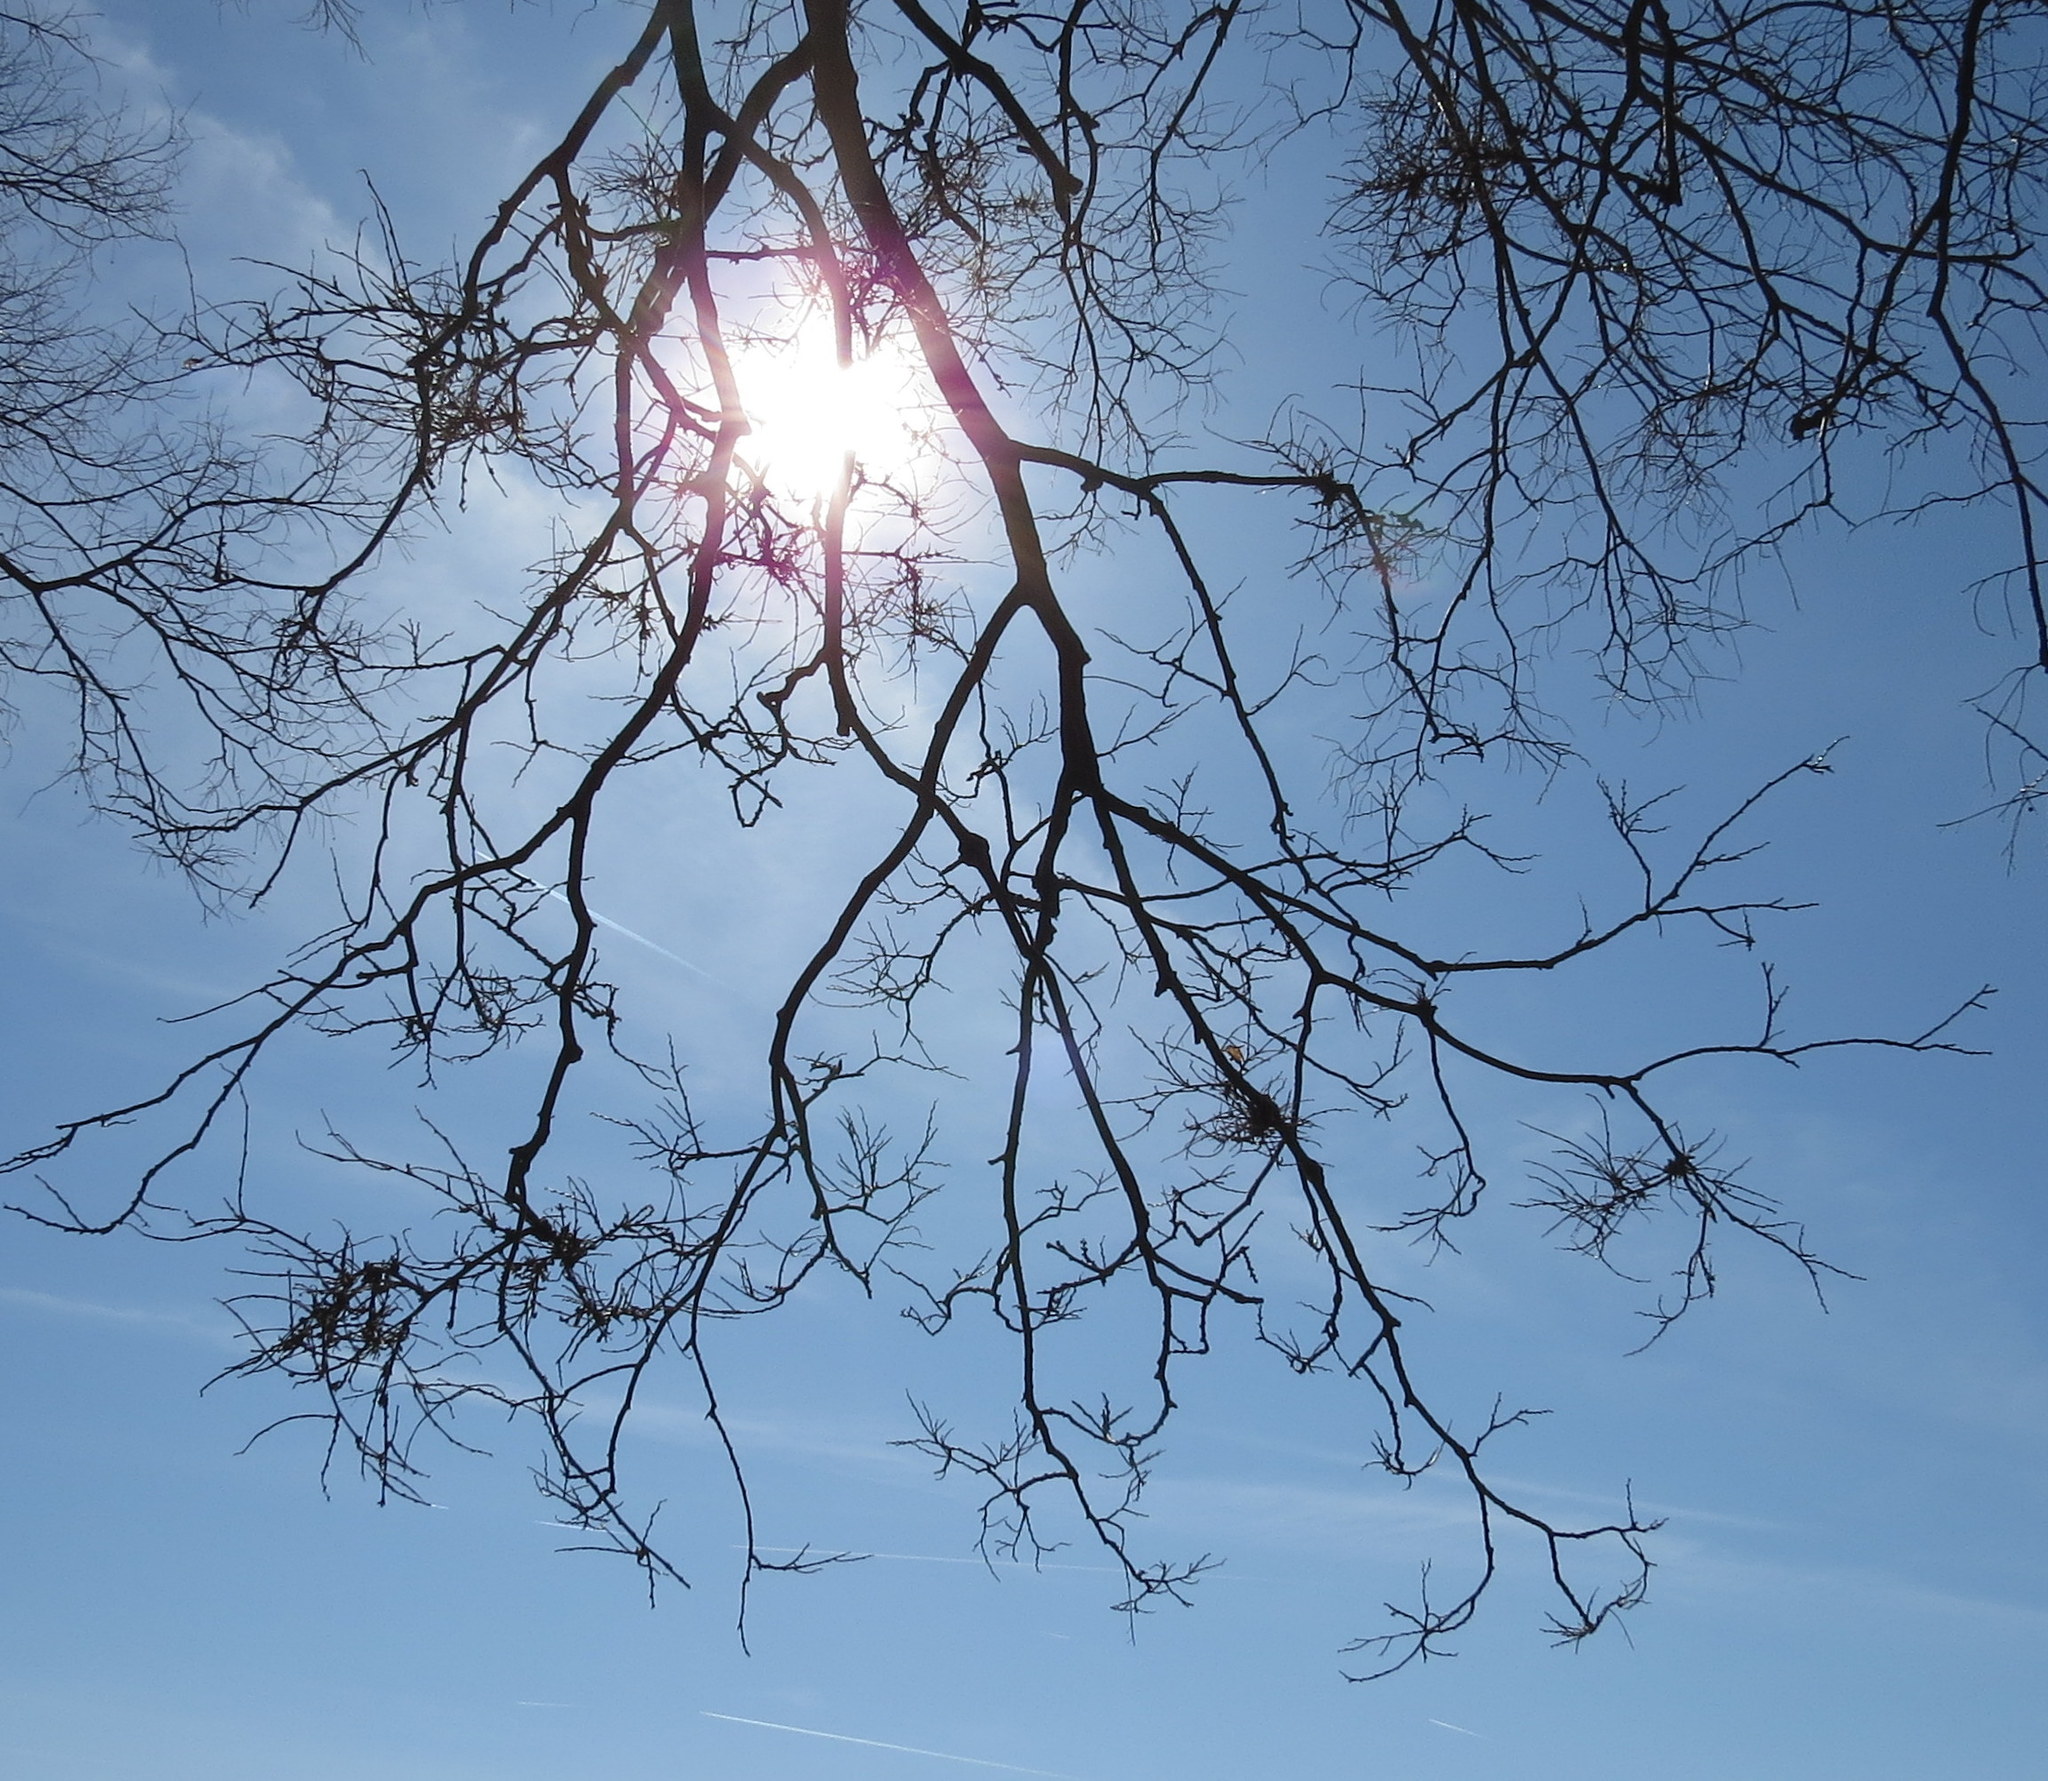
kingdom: Animalia
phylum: Arthropoda
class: Arachnida
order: Trombidiformes
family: Eriophyidae
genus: Aceria
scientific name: Aceria
